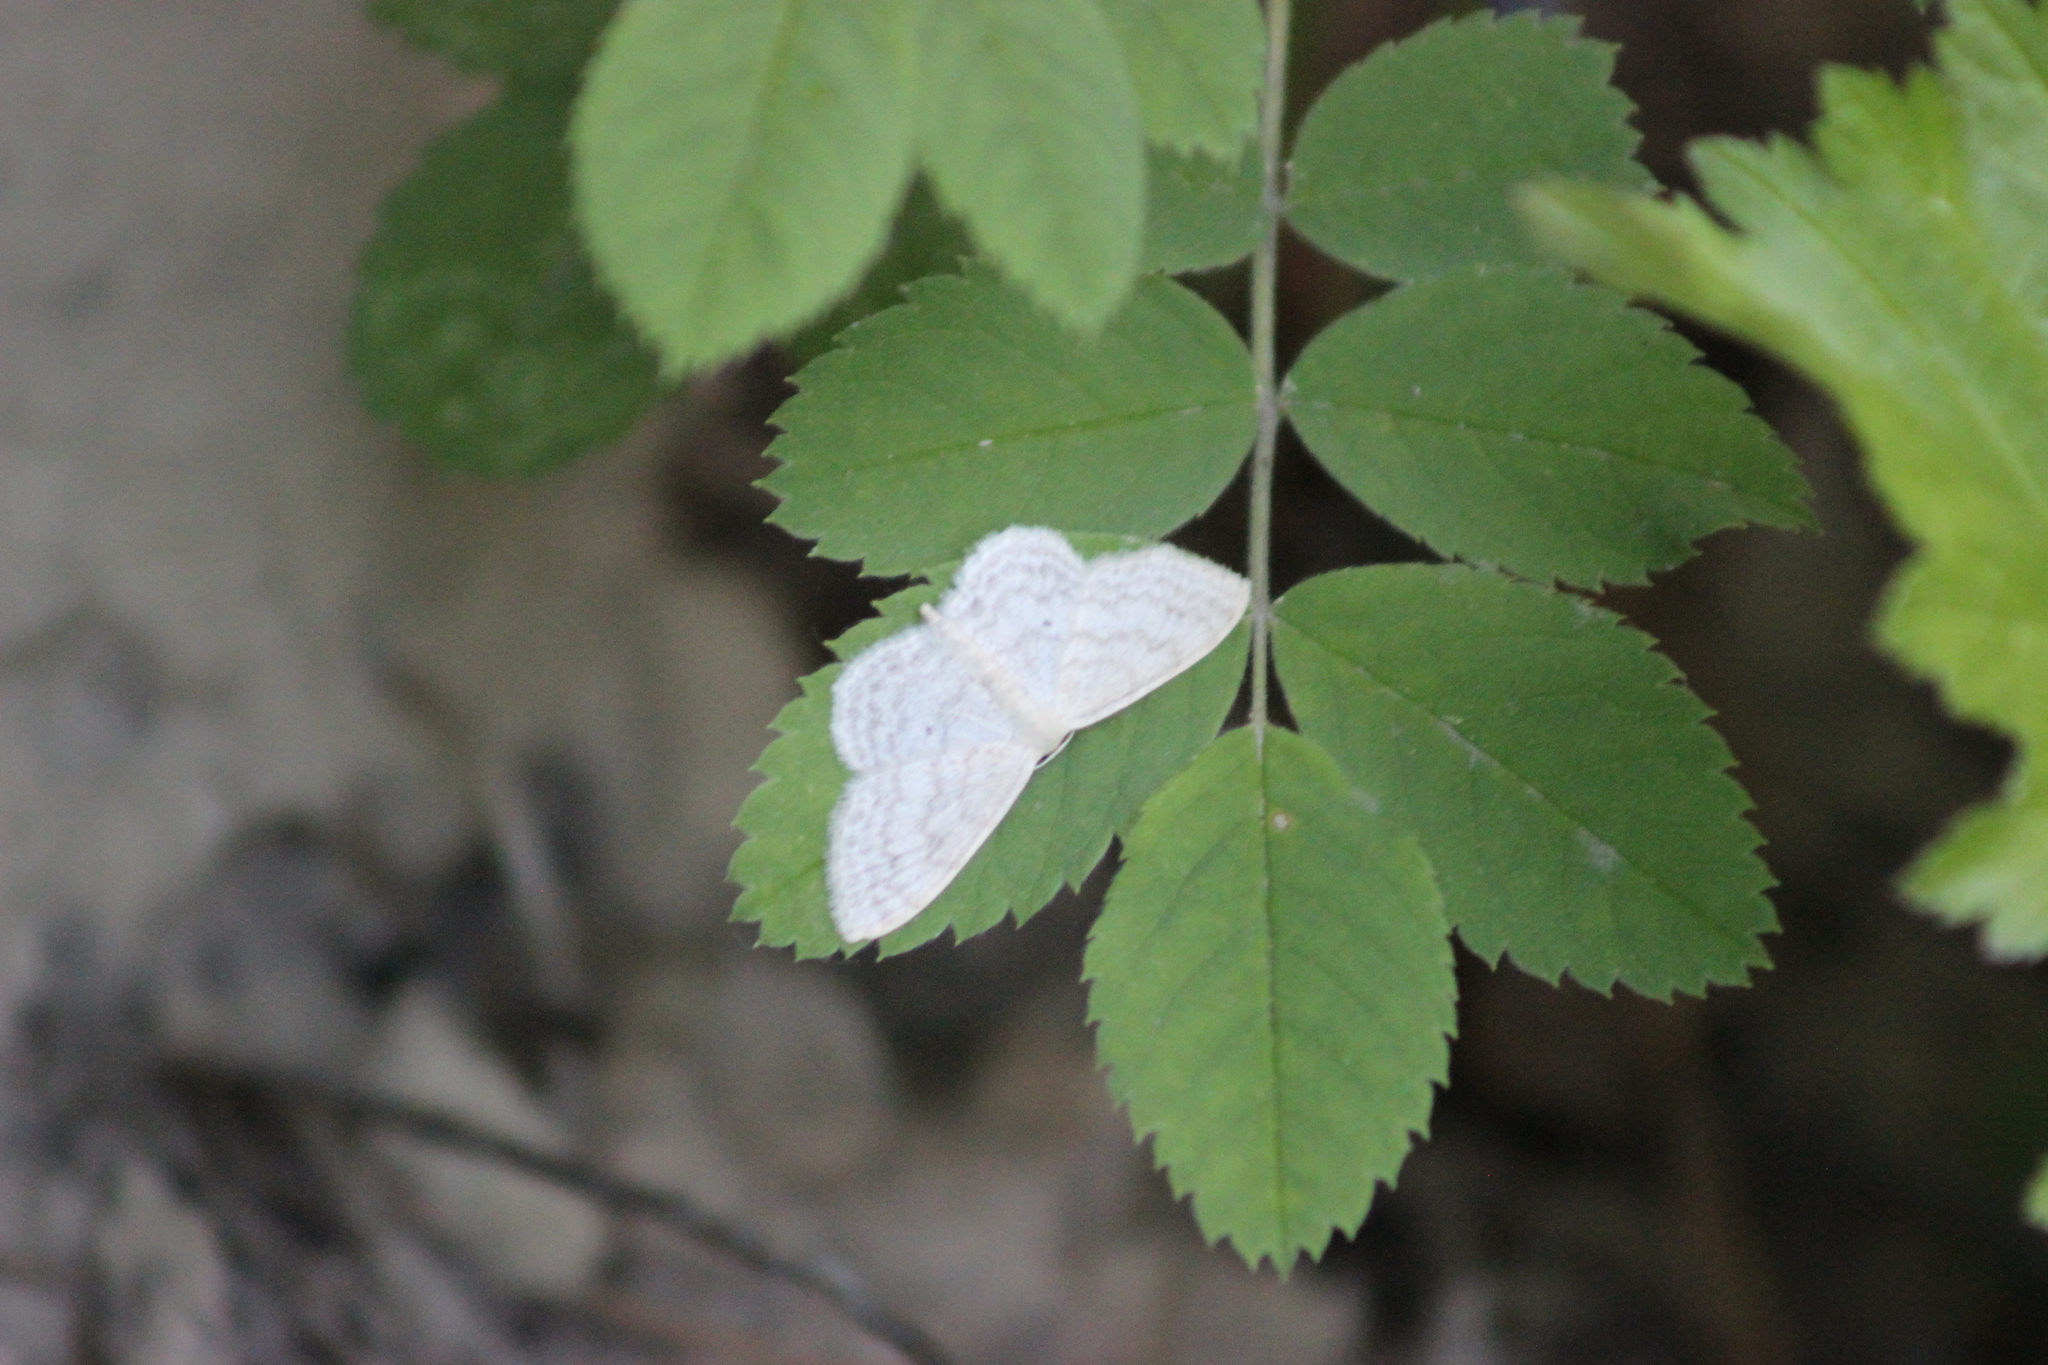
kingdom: Animalia
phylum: Arthropoda
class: Insecta
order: Lepidoptera
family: Geometridae
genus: Scopula
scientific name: Scopula floslactata
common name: Cream wave
